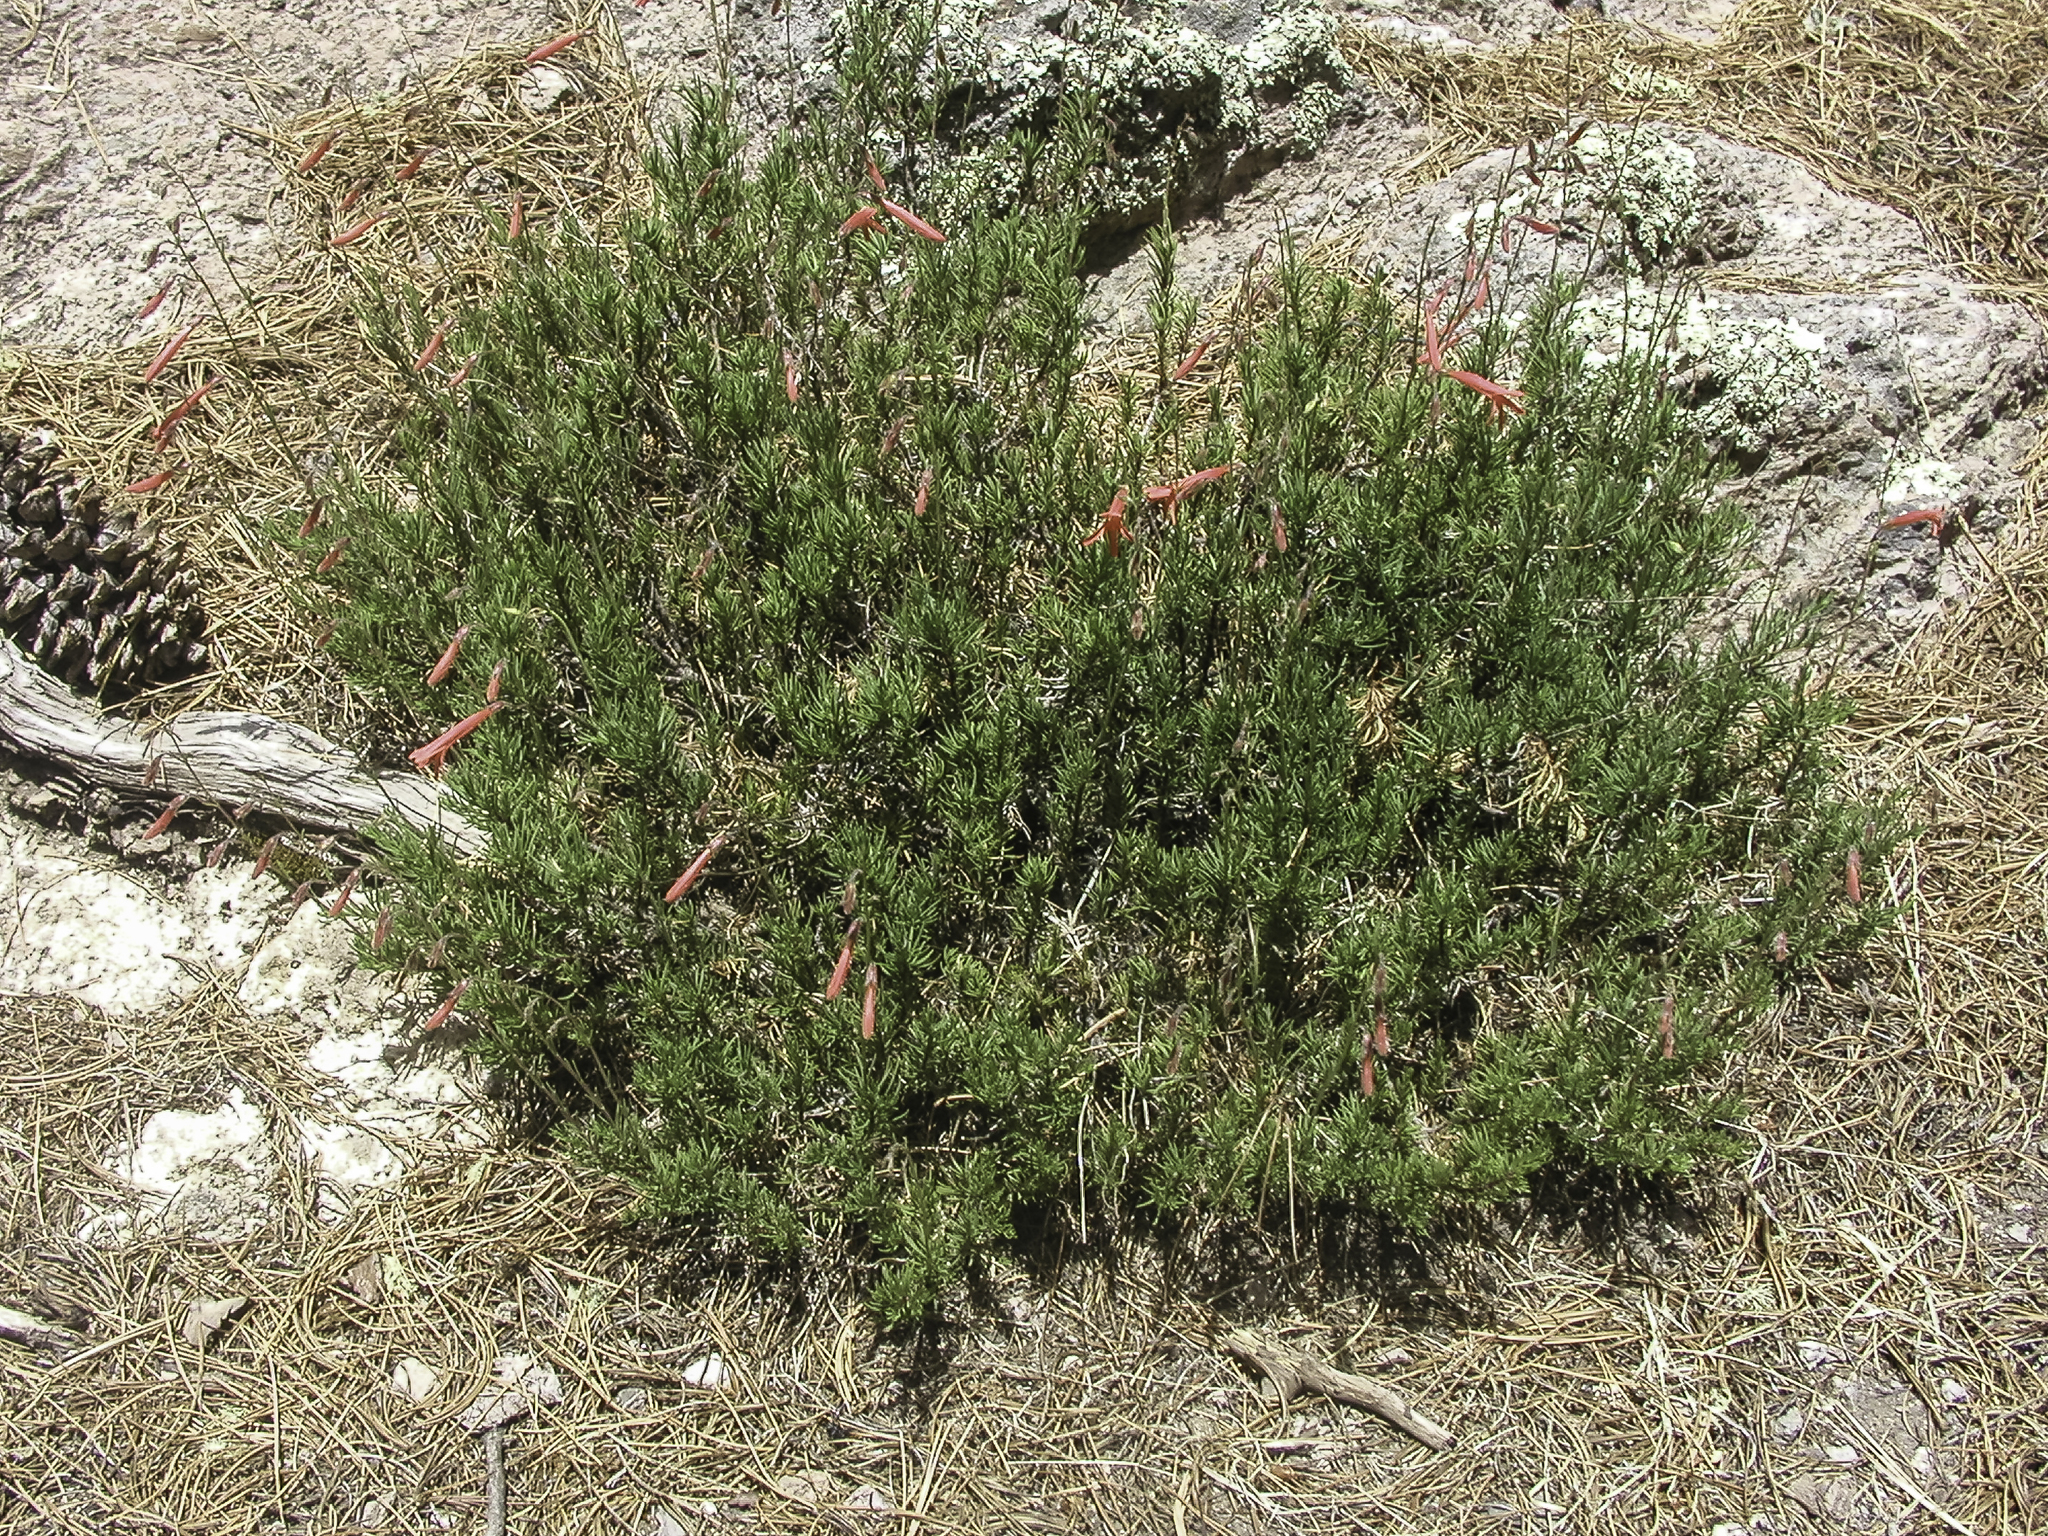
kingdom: Plantae
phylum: Tracheophyta
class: Magnoliopsida
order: Lamiales
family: Plantaginaceae
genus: Penstemon
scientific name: Penstemon pinifolius
